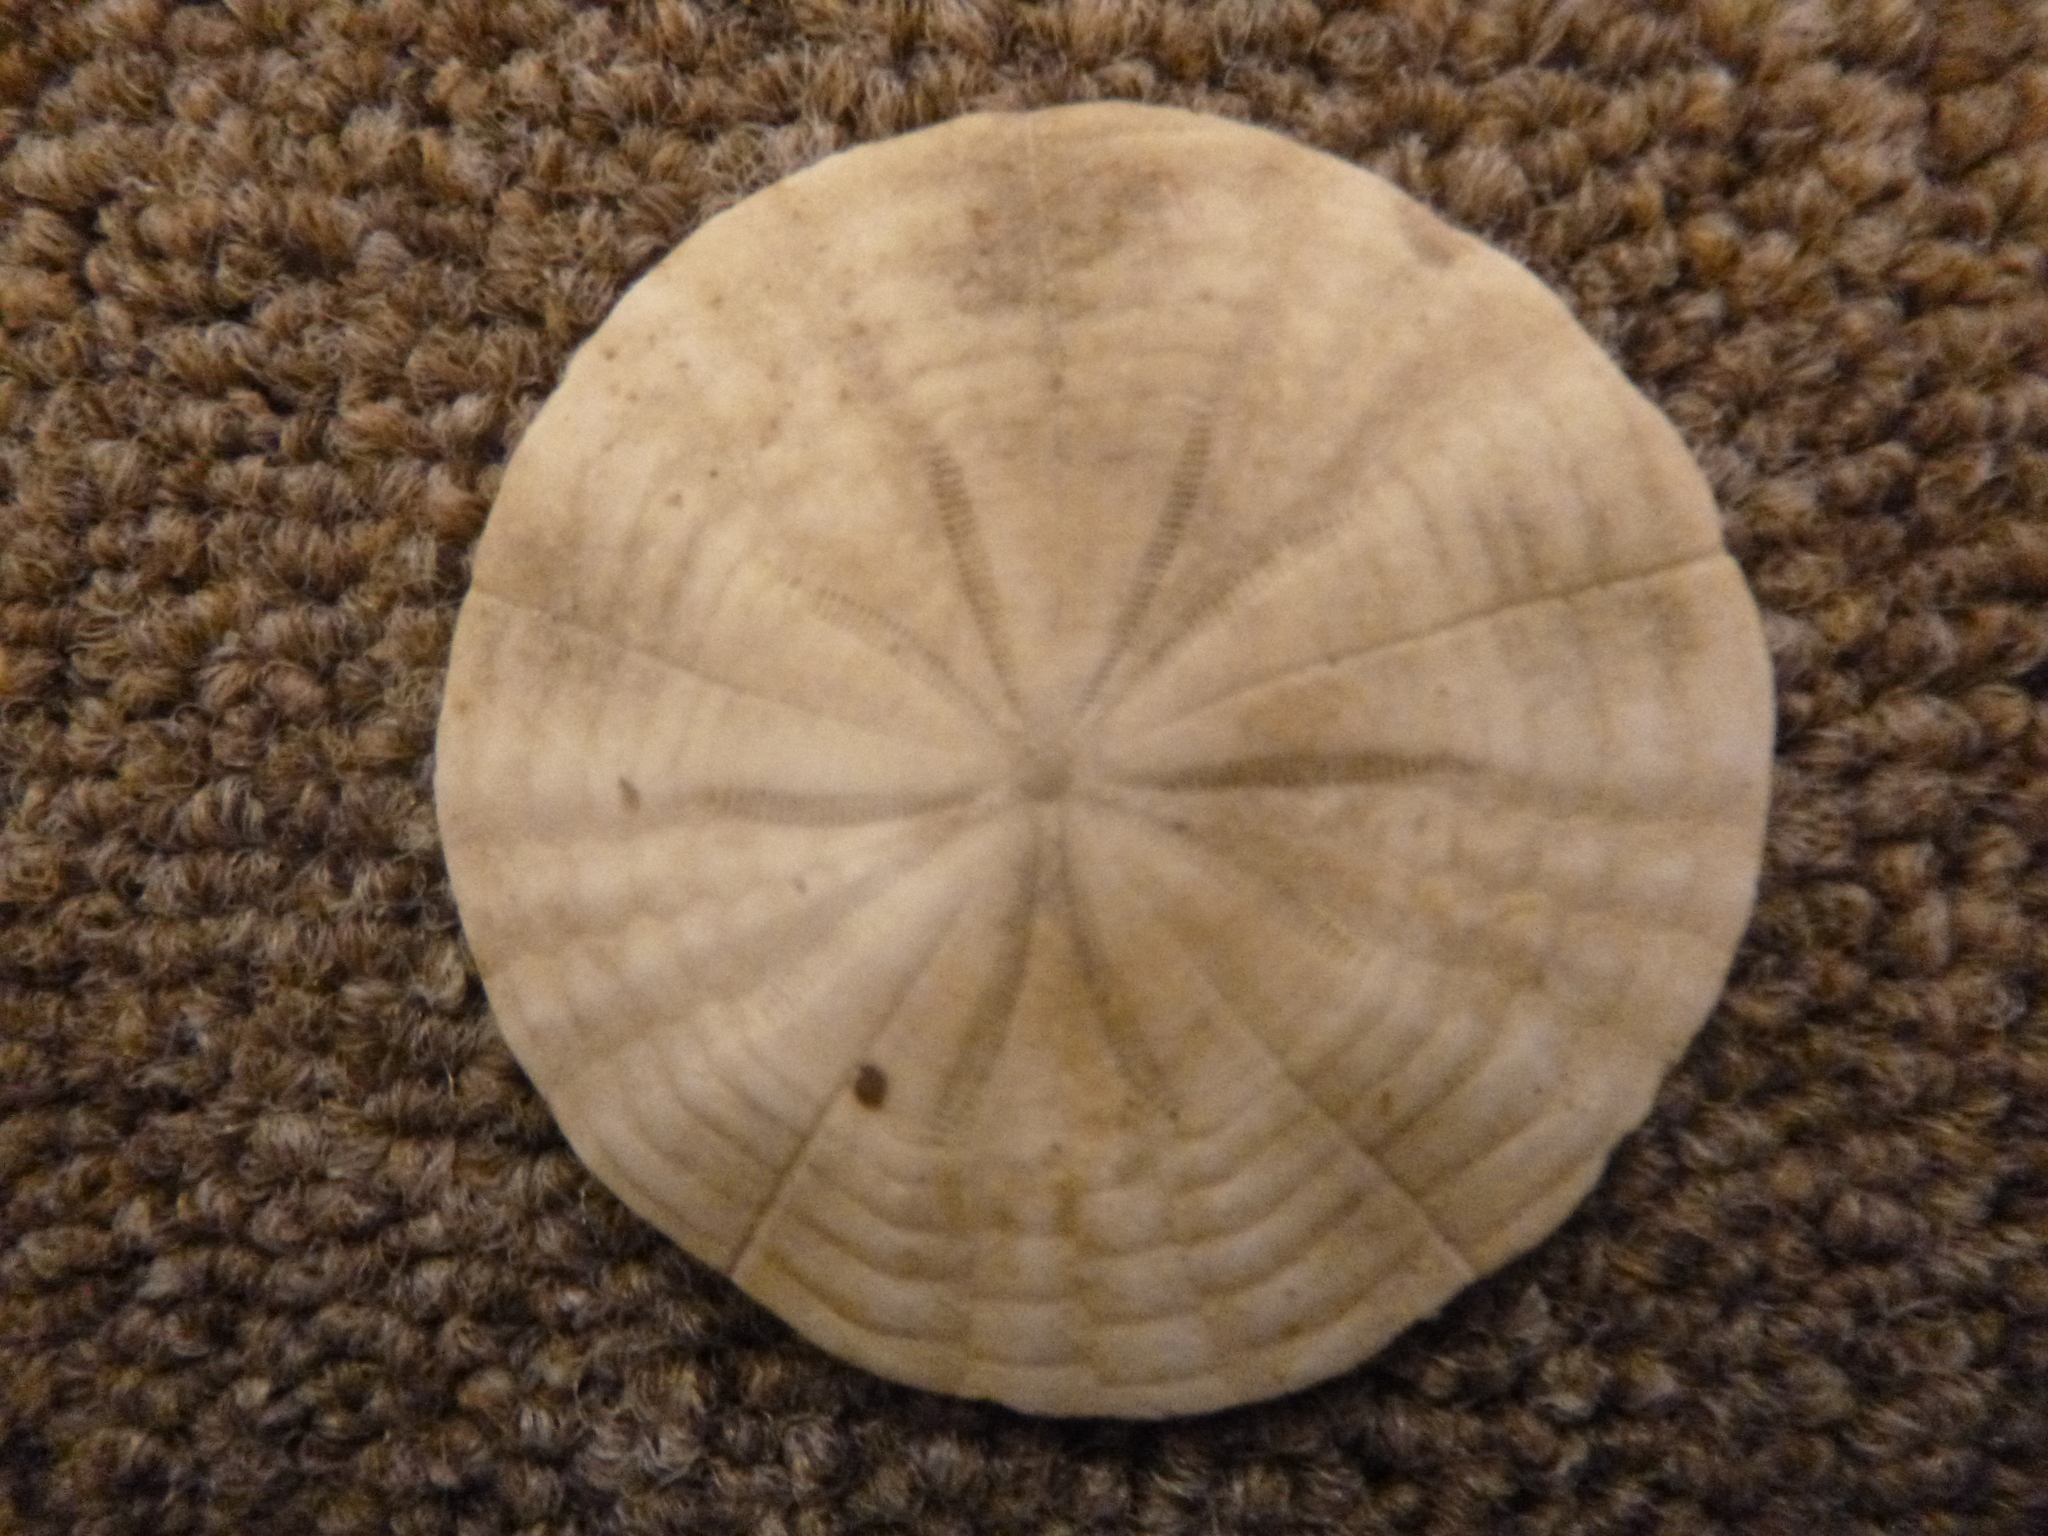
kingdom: Animalia
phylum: Echinodermata
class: Echinoidea
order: Clypeasteroida
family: Clypeasteridae
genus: Fellaster
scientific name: Fellaster zelandiae
